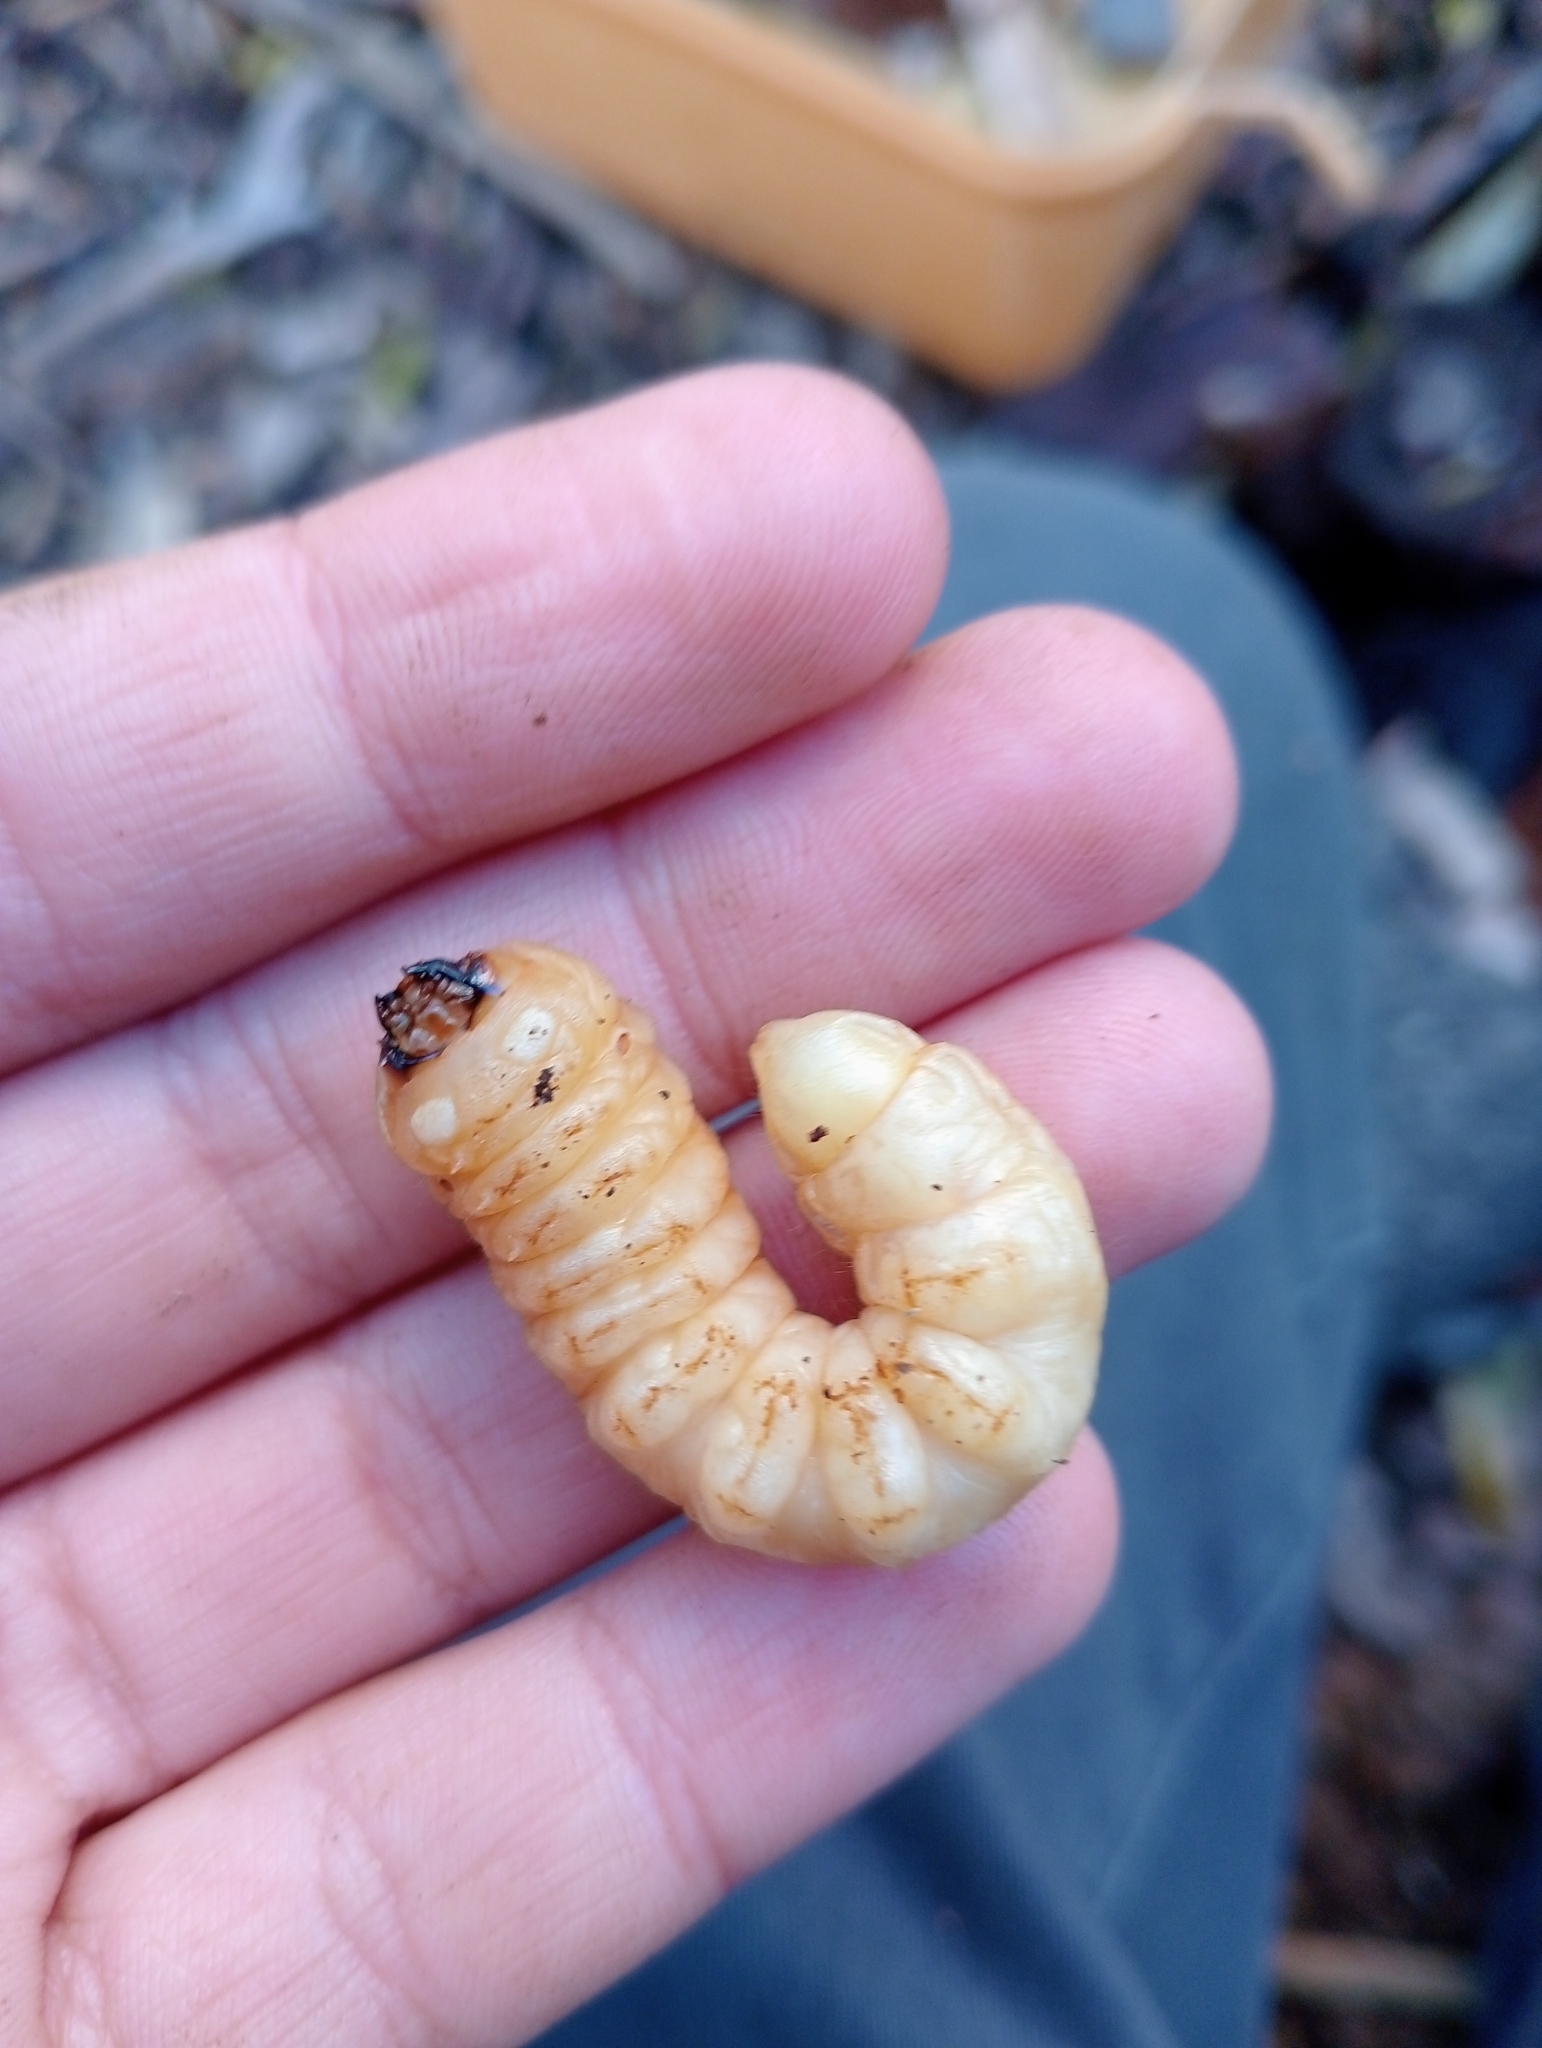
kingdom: Animalia
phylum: Arthropoda
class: Insecta
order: Coleoptera
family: Cerambycidae
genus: Prionoplus
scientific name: Prionoplus reticularis
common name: Huhu beetle
